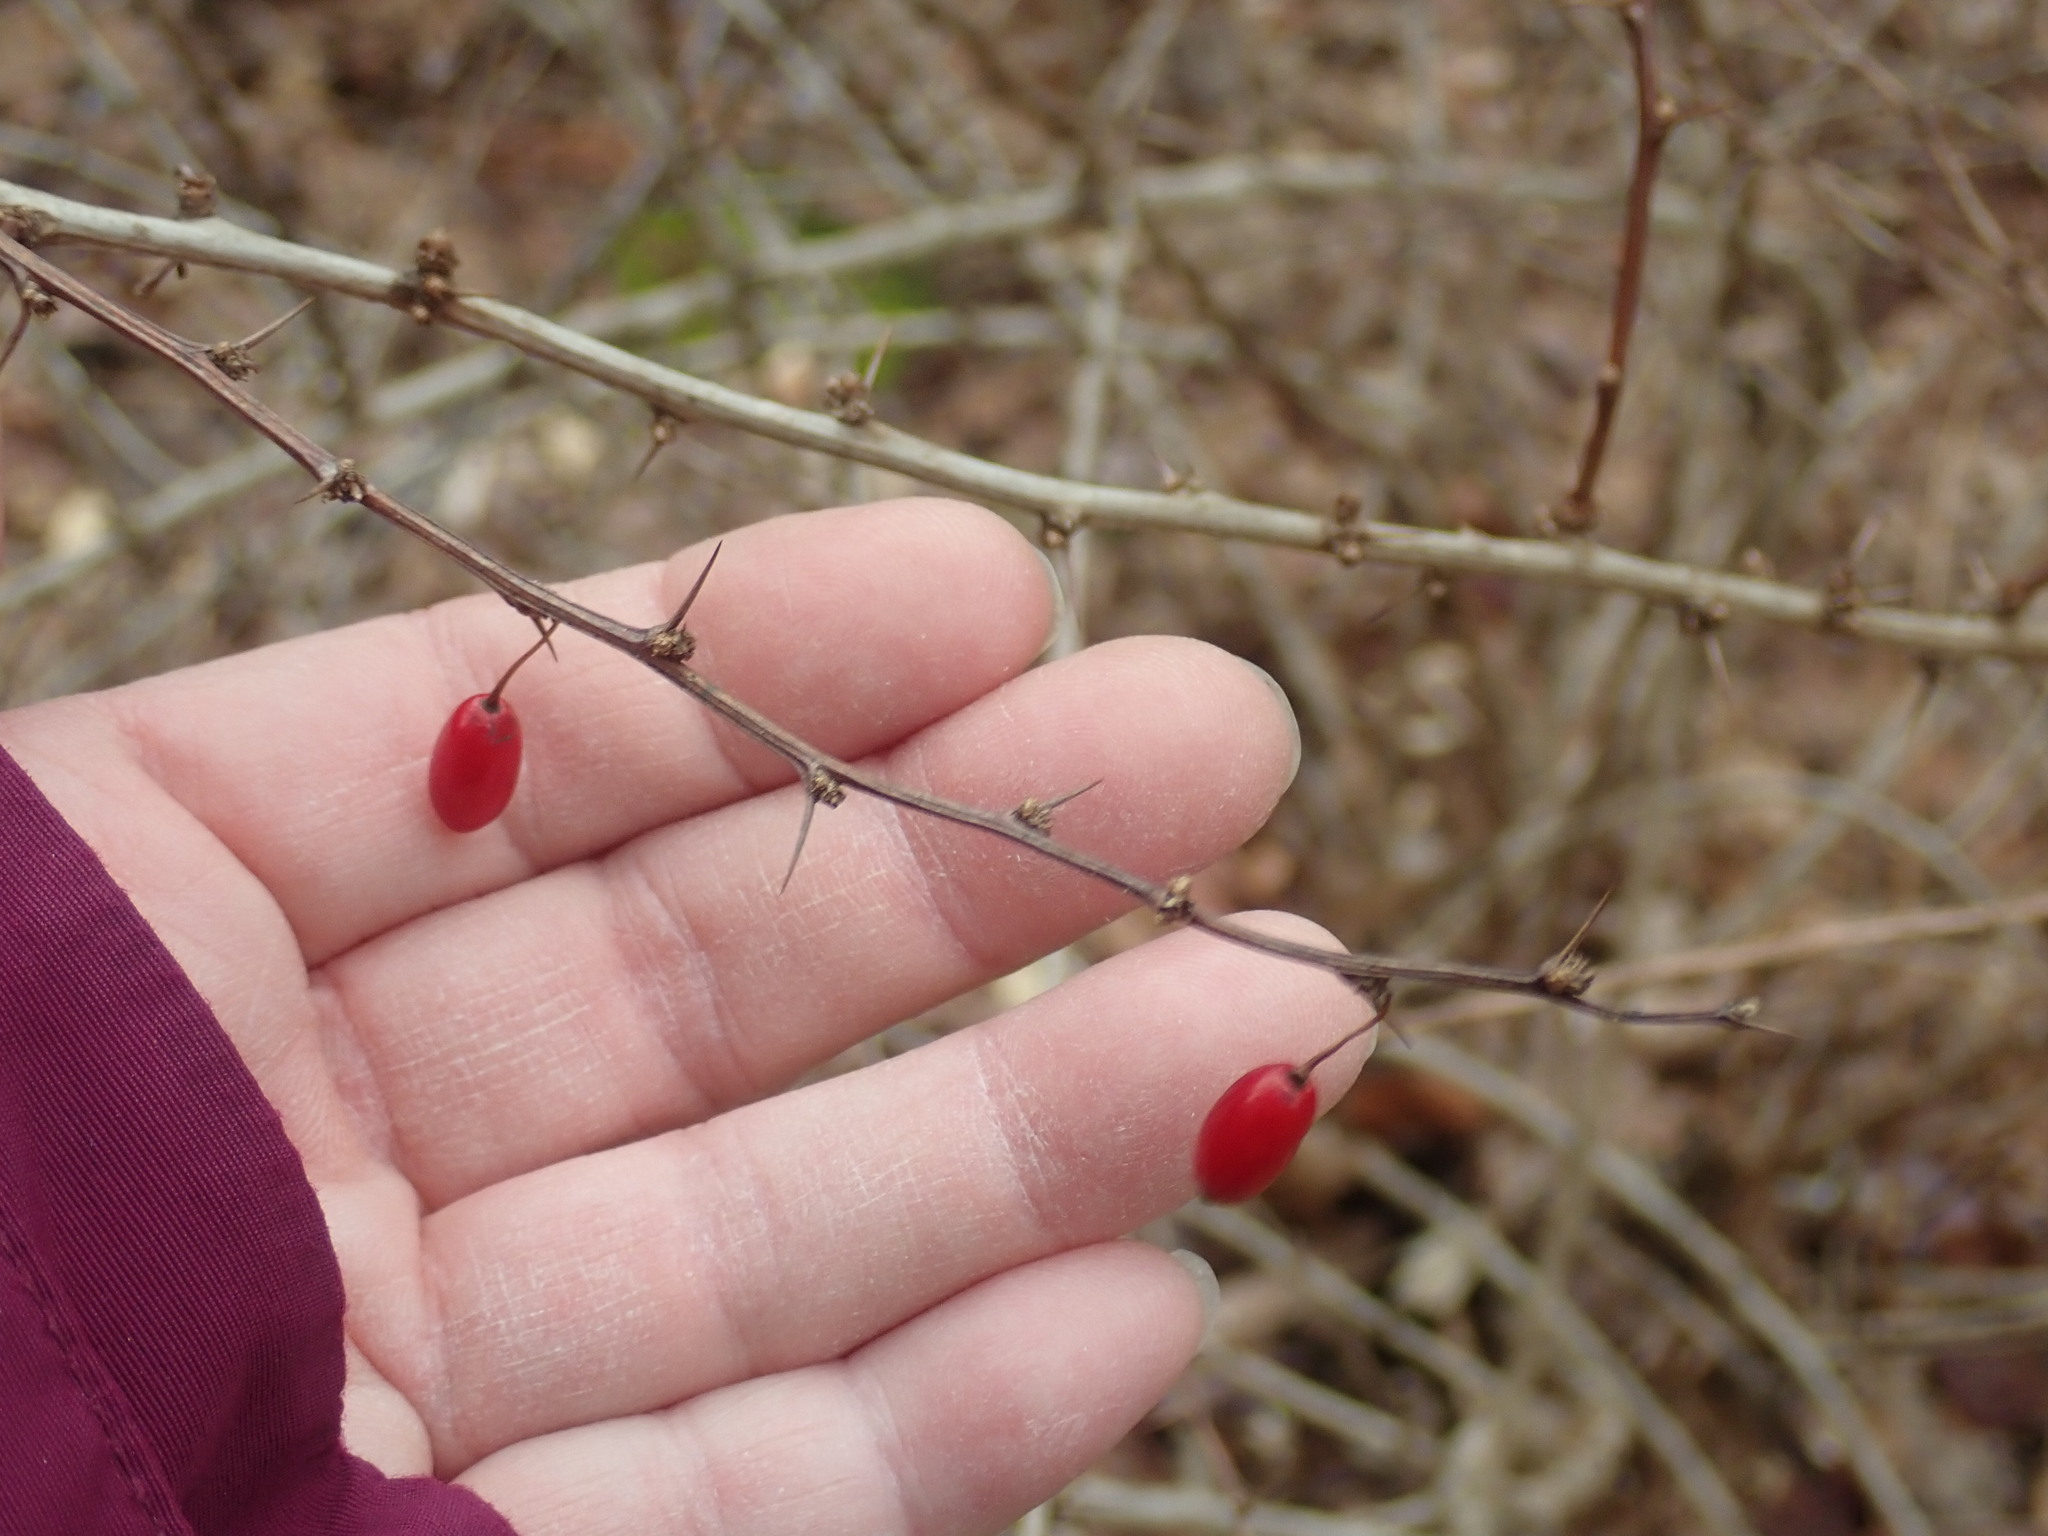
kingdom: Plantae
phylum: Tracheophyta
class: Magnoliopsida
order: Ranunculales
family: Berberidaceae
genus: Berberis
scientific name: Berberis thunbergii
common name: Japanese barberry
